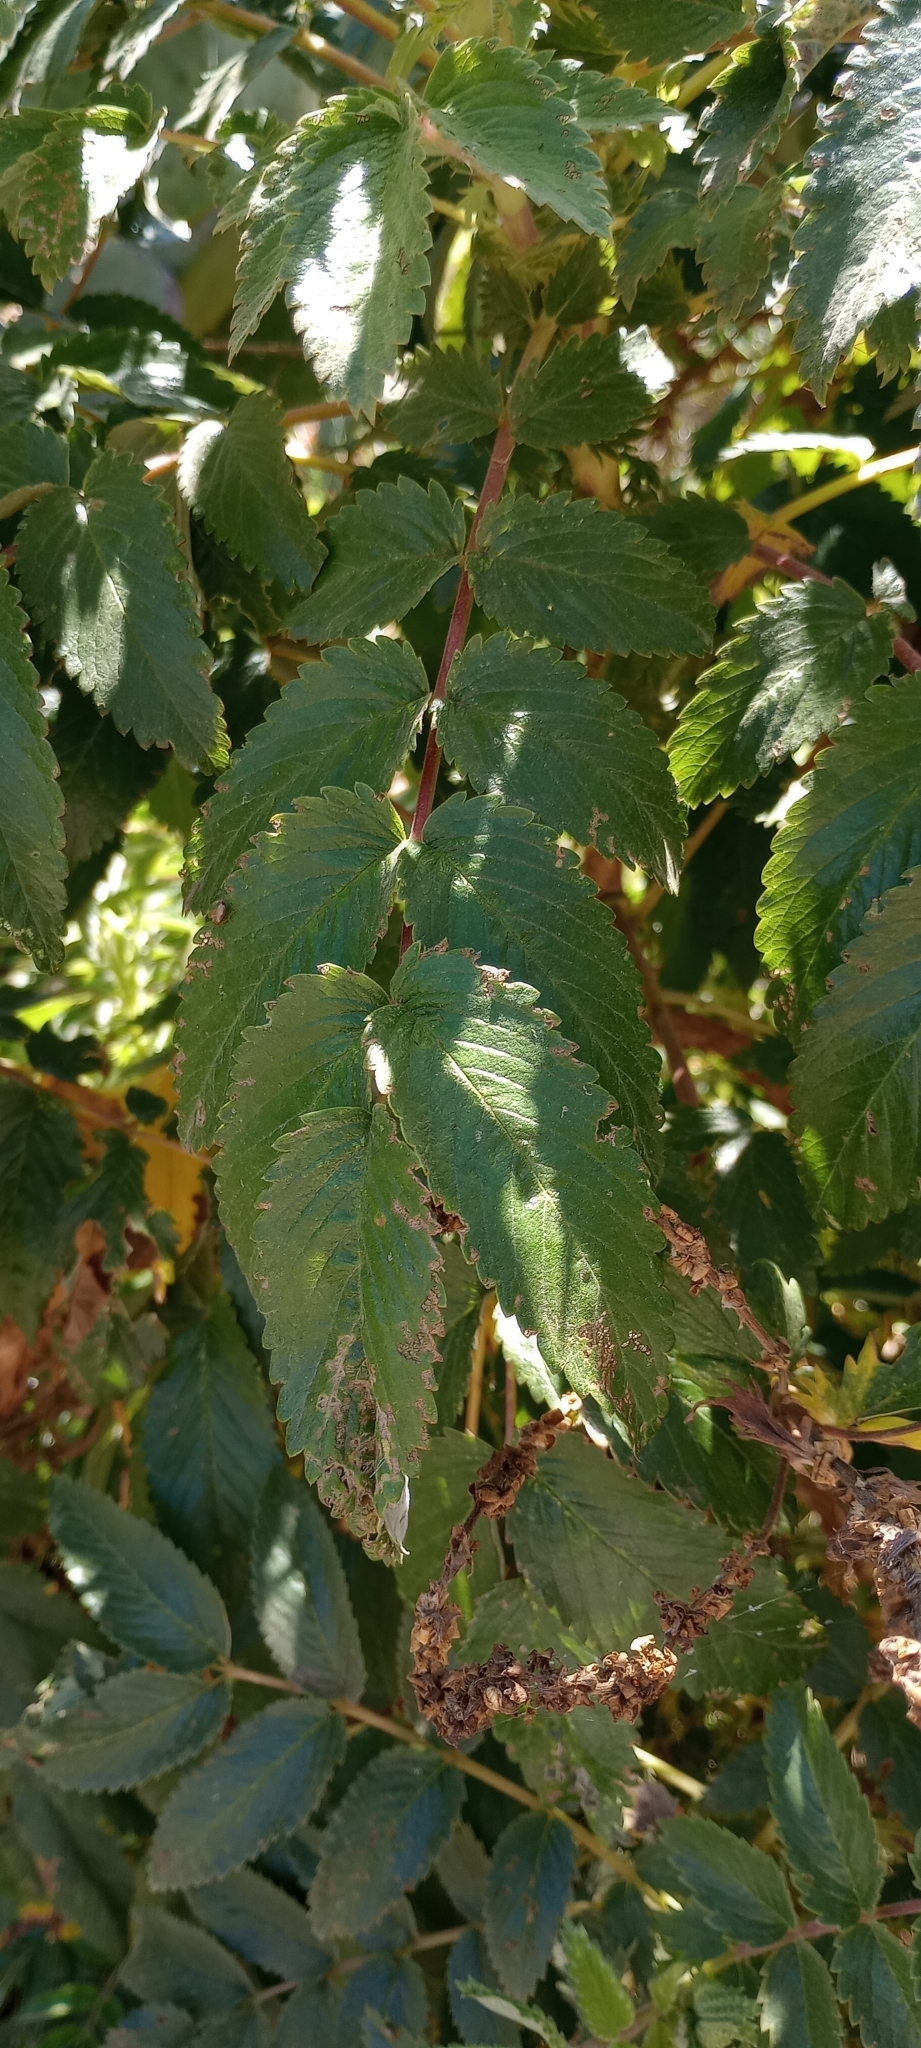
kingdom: Plantae
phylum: Tracheophyta
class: Magnoliopsida
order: Rosales
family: Rosaceae
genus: Bencomia
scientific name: Bencomia caudata
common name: Bencomia
